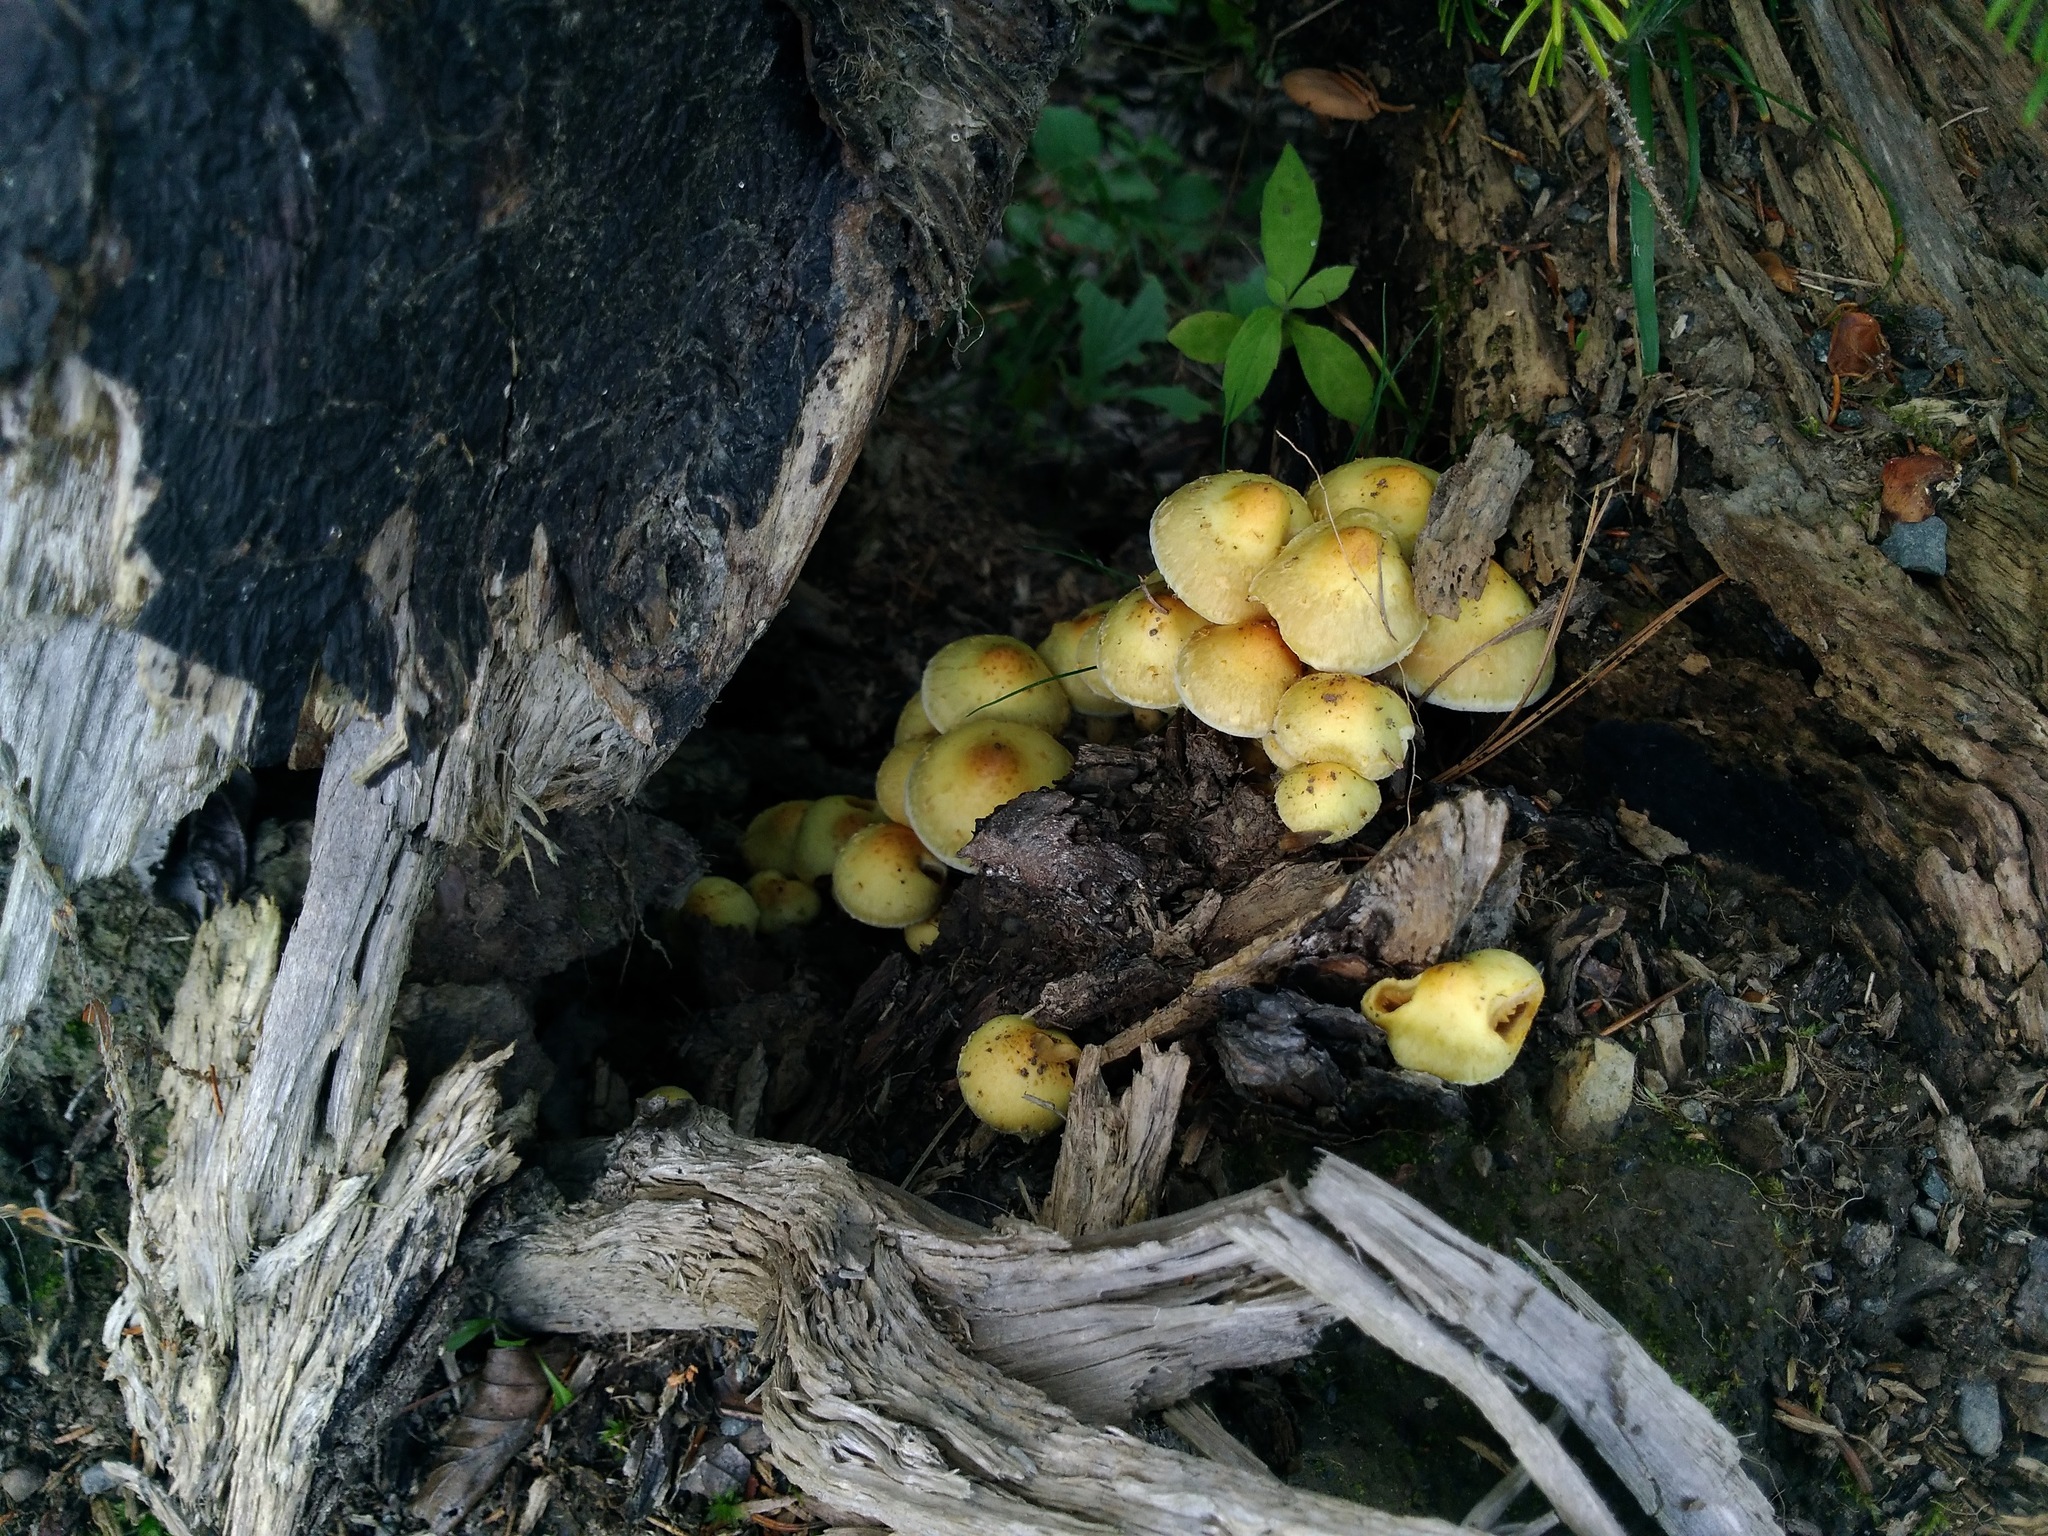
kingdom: Fungi
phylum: Basidiomycota
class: Agaricomycetes
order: Agaricales
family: Physalacriaceae
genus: Armillaria
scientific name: Armillaria mellea
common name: Honey fungus
